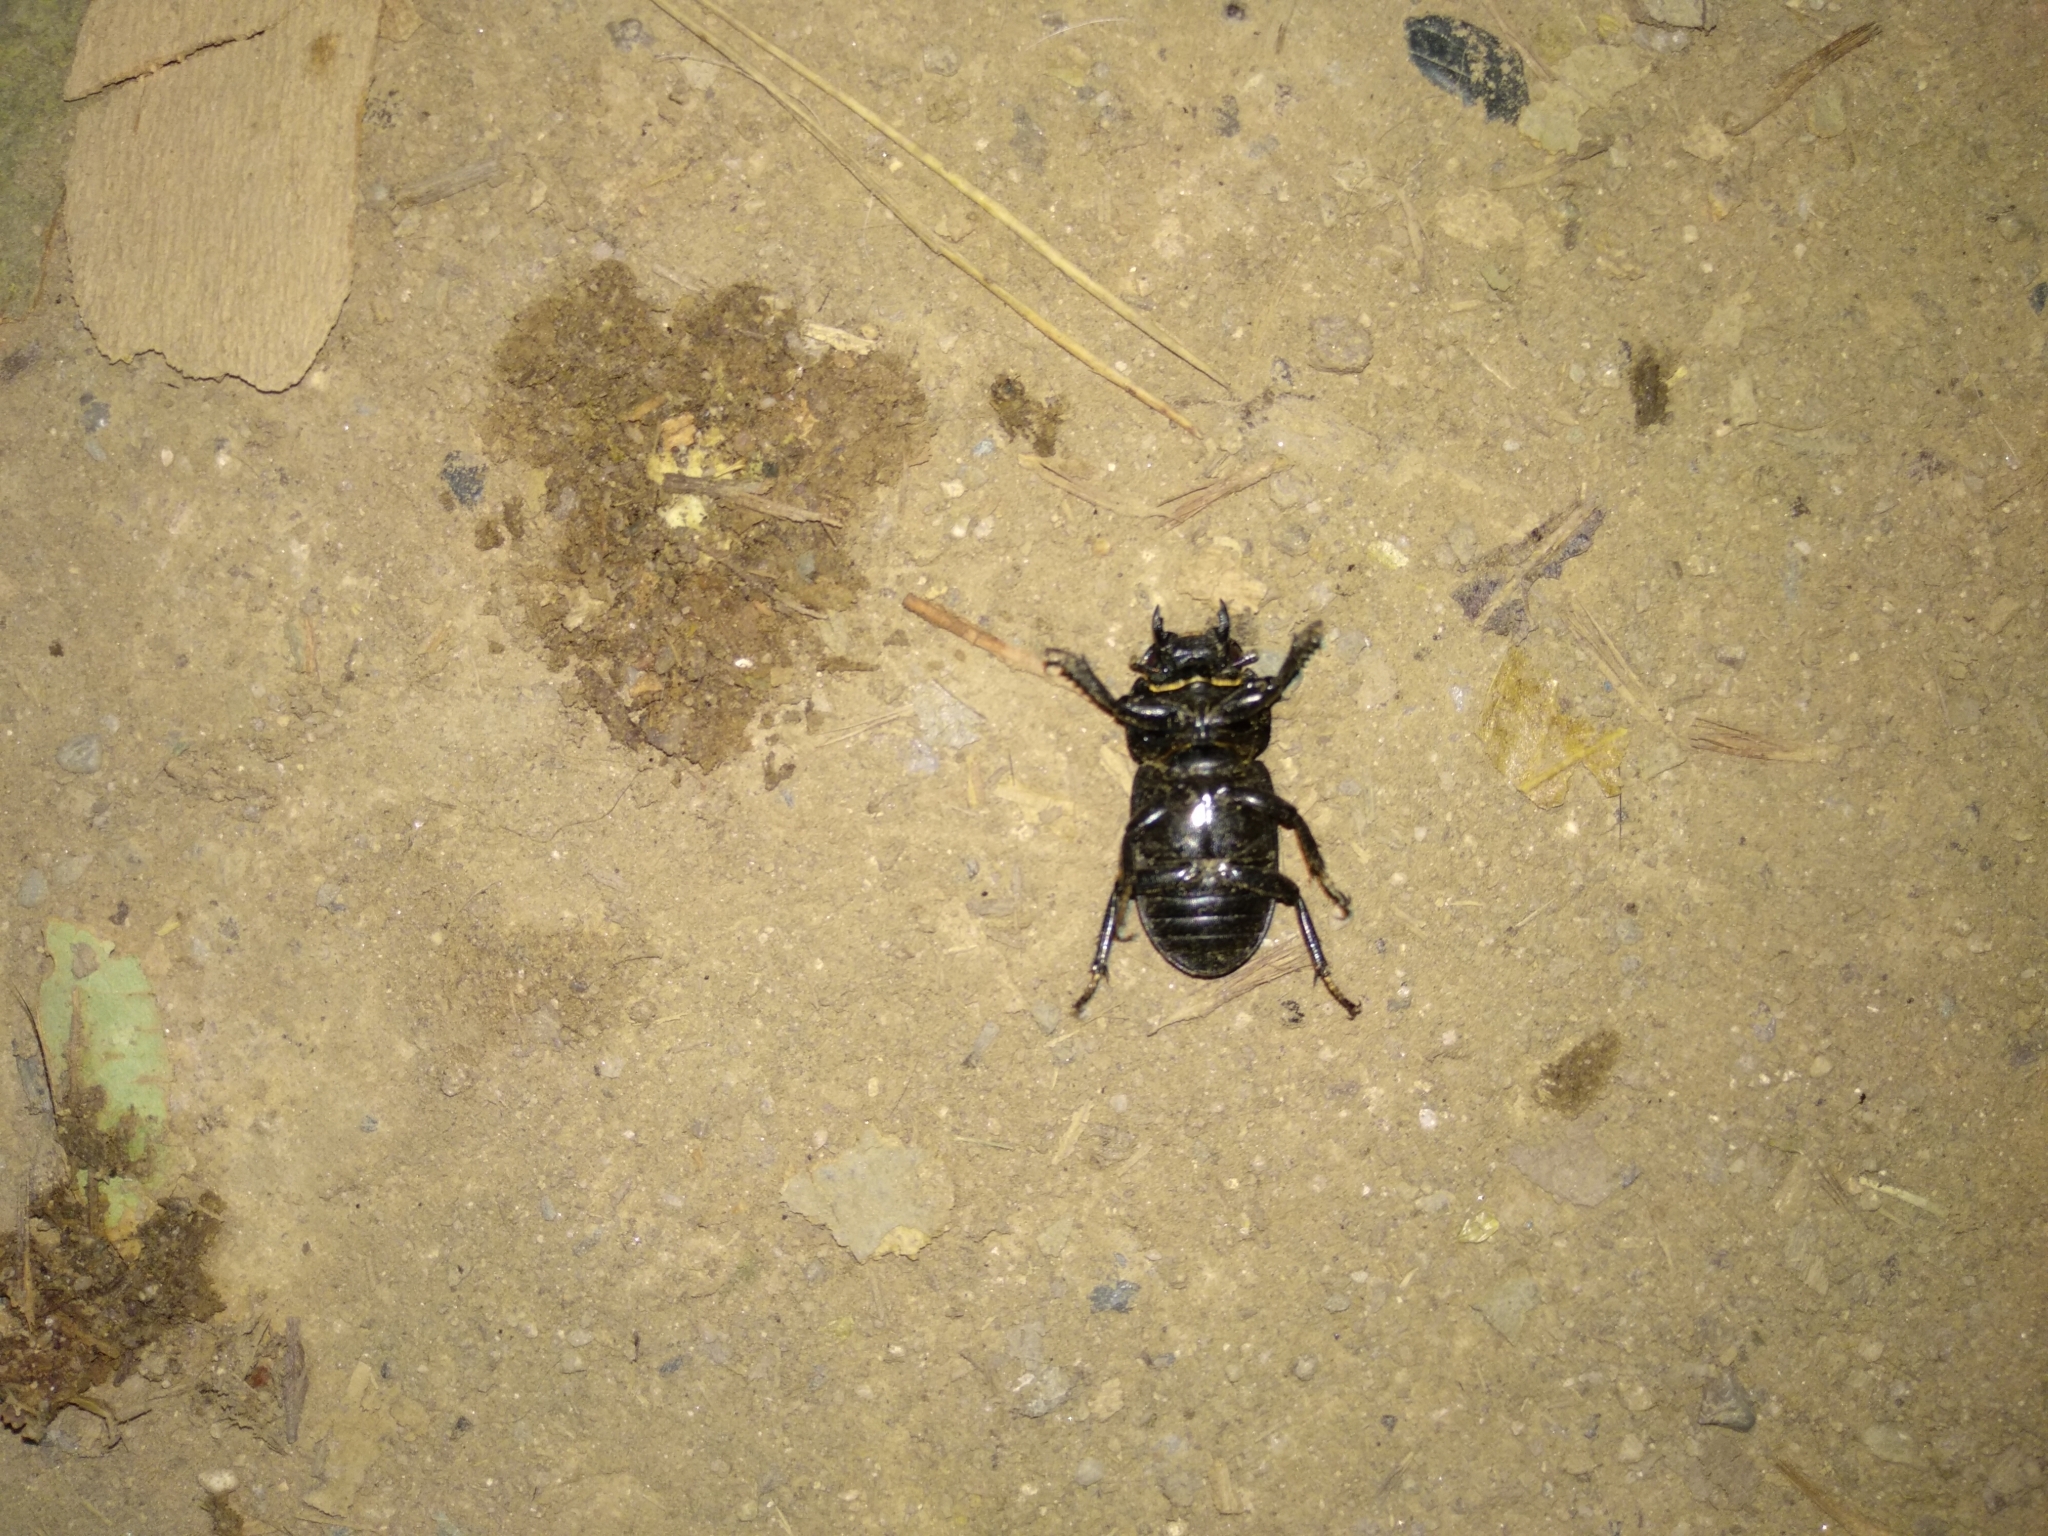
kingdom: Animalia
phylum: Arthropoda
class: Insecta
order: Coleoptera
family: Lucanidae
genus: Dorcus
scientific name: Dorcus parallelipipedus
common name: Lesser stag beetle
